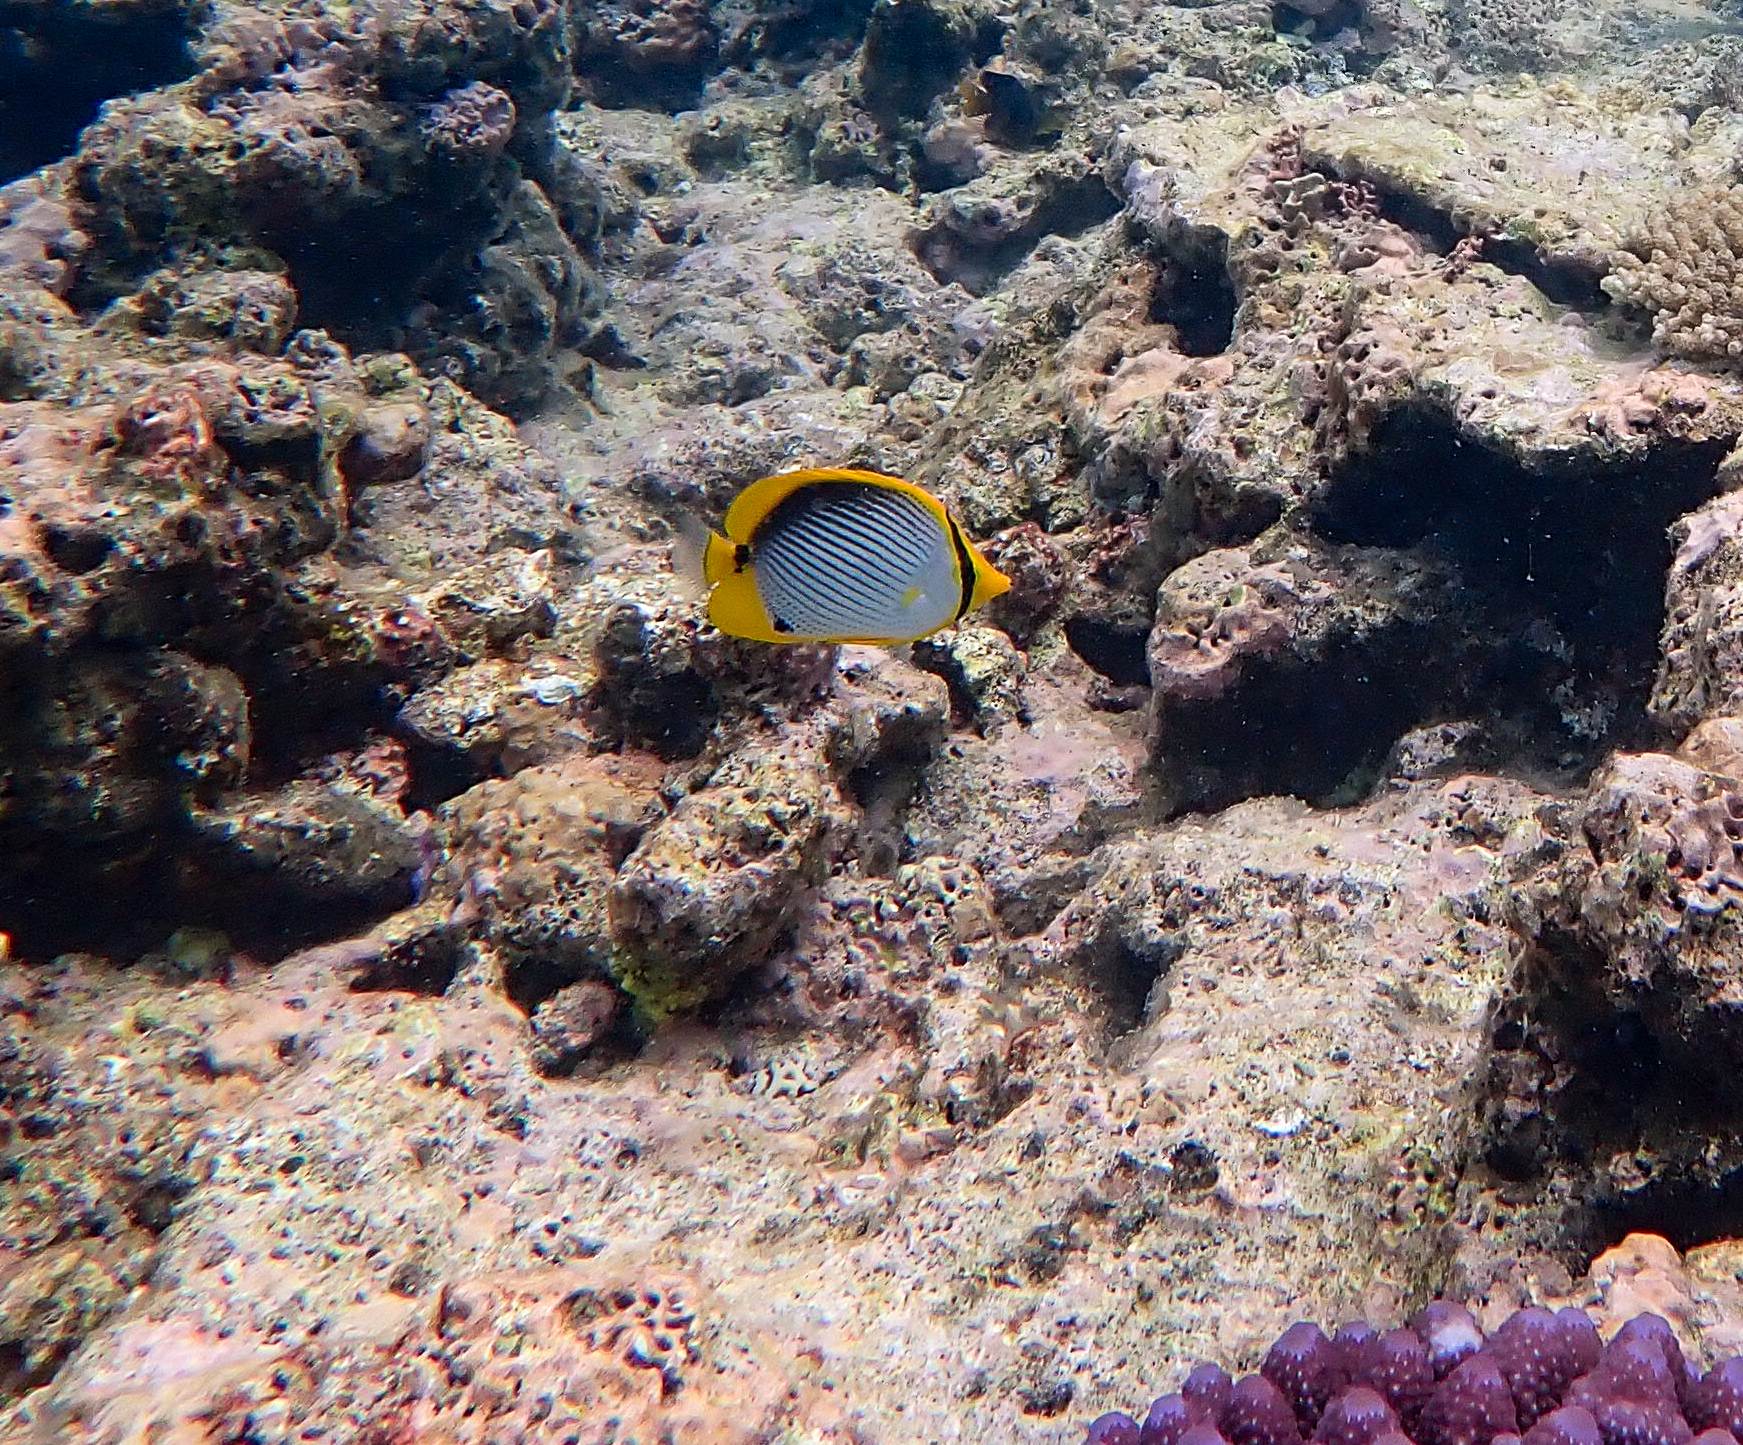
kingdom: Animalia
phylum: Chordata
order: Perciformes
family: Chaetodontidae
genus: Chaetodon
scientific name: Chaetodon melannotus
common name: Blackback butterflyfish
